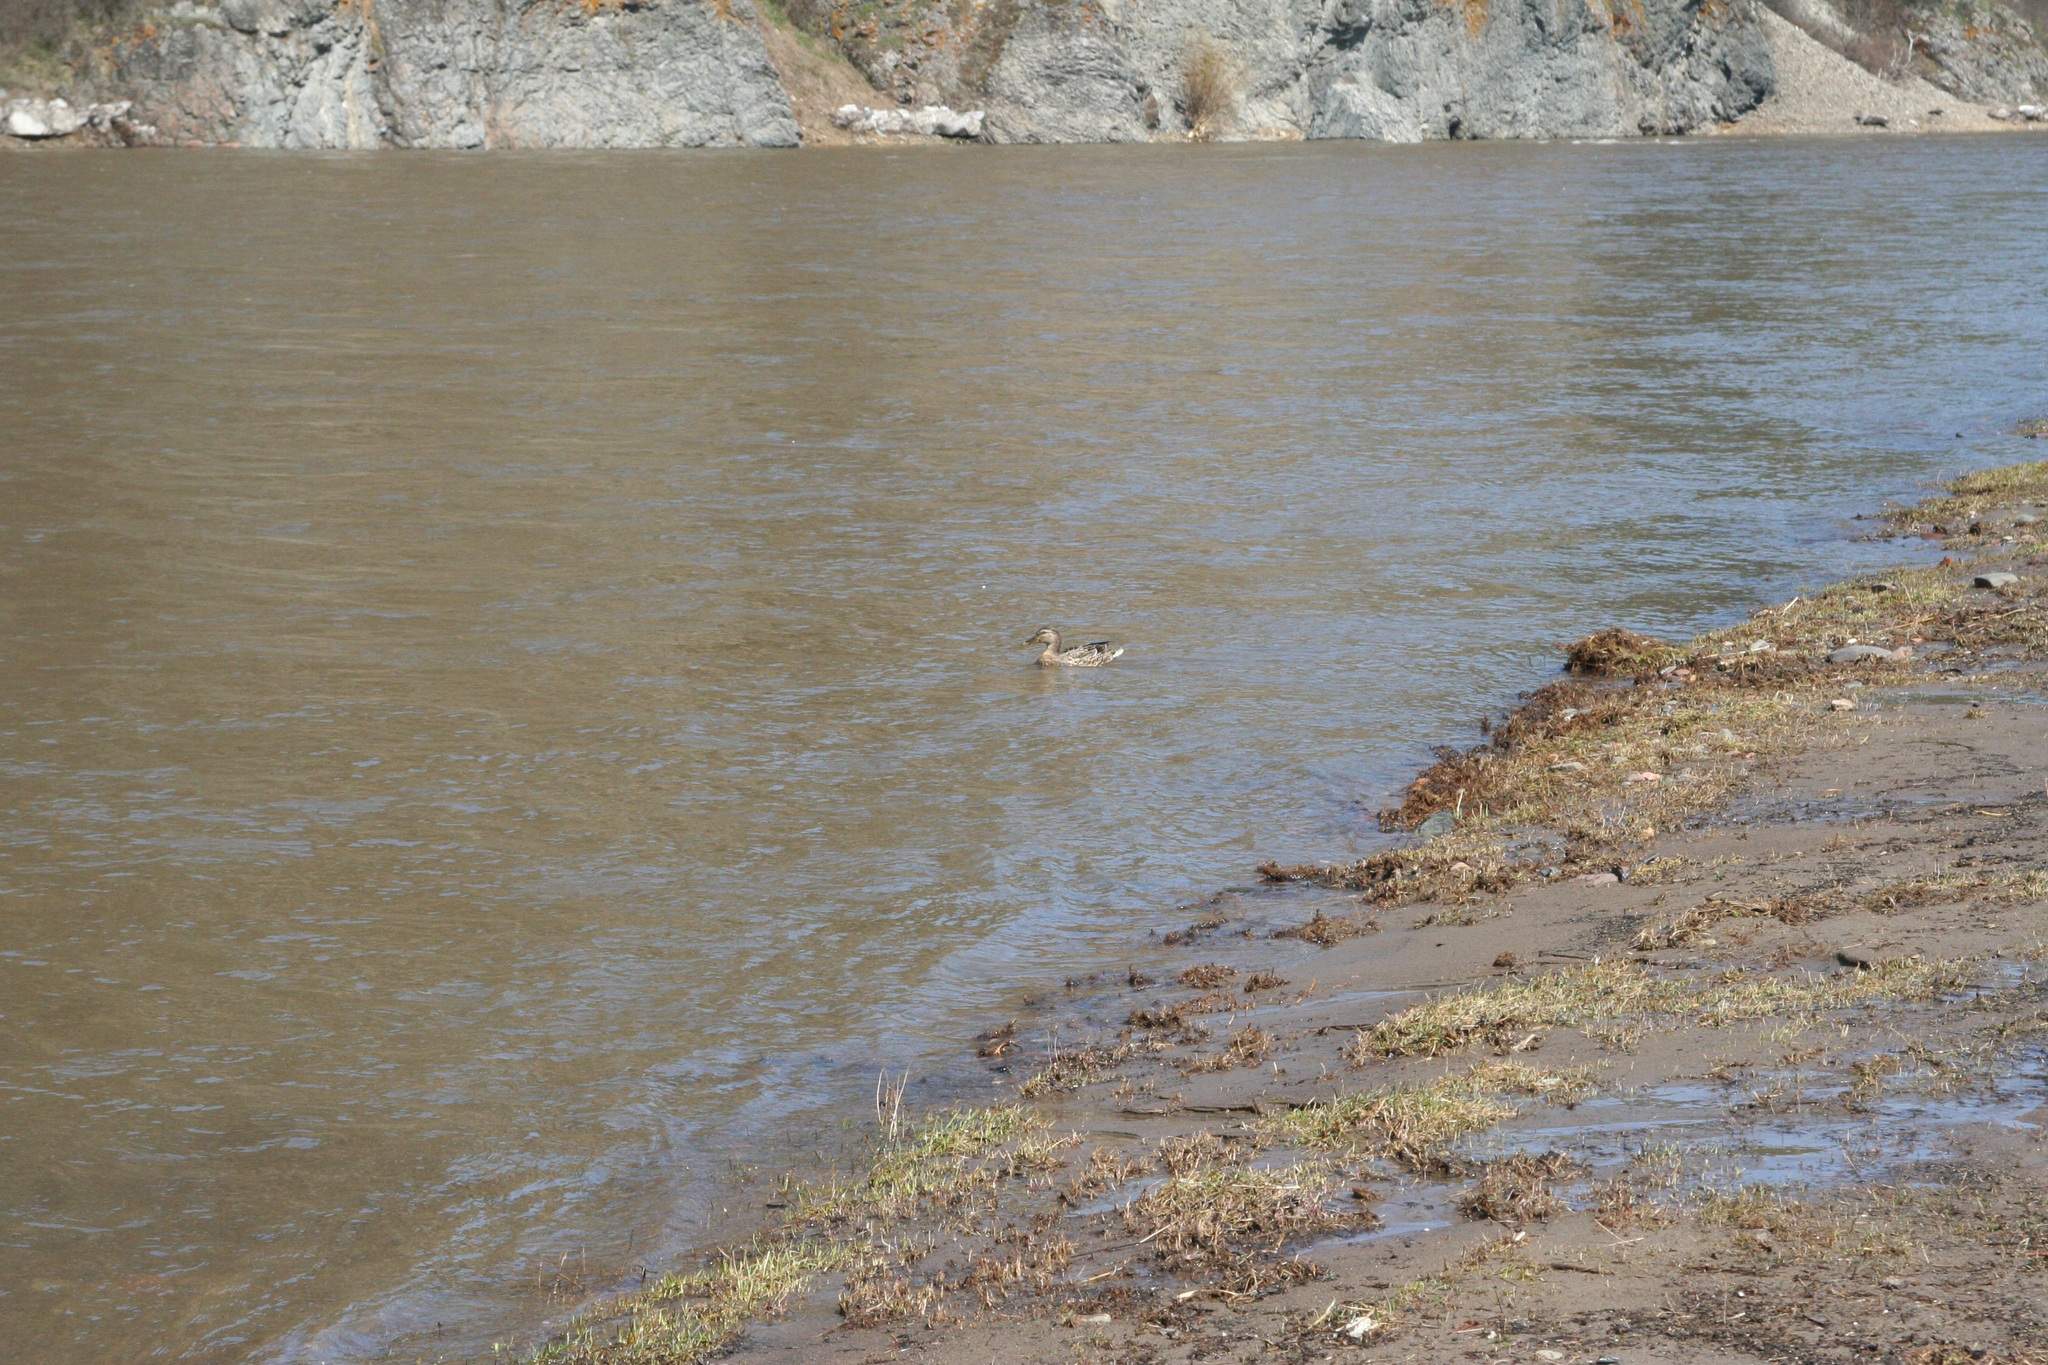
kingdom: Animalia
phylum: Chordata
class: Aves
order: Anseriformes
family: Anatidae
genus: Anas
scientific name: Anas platyrhynchos
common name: Mallard
